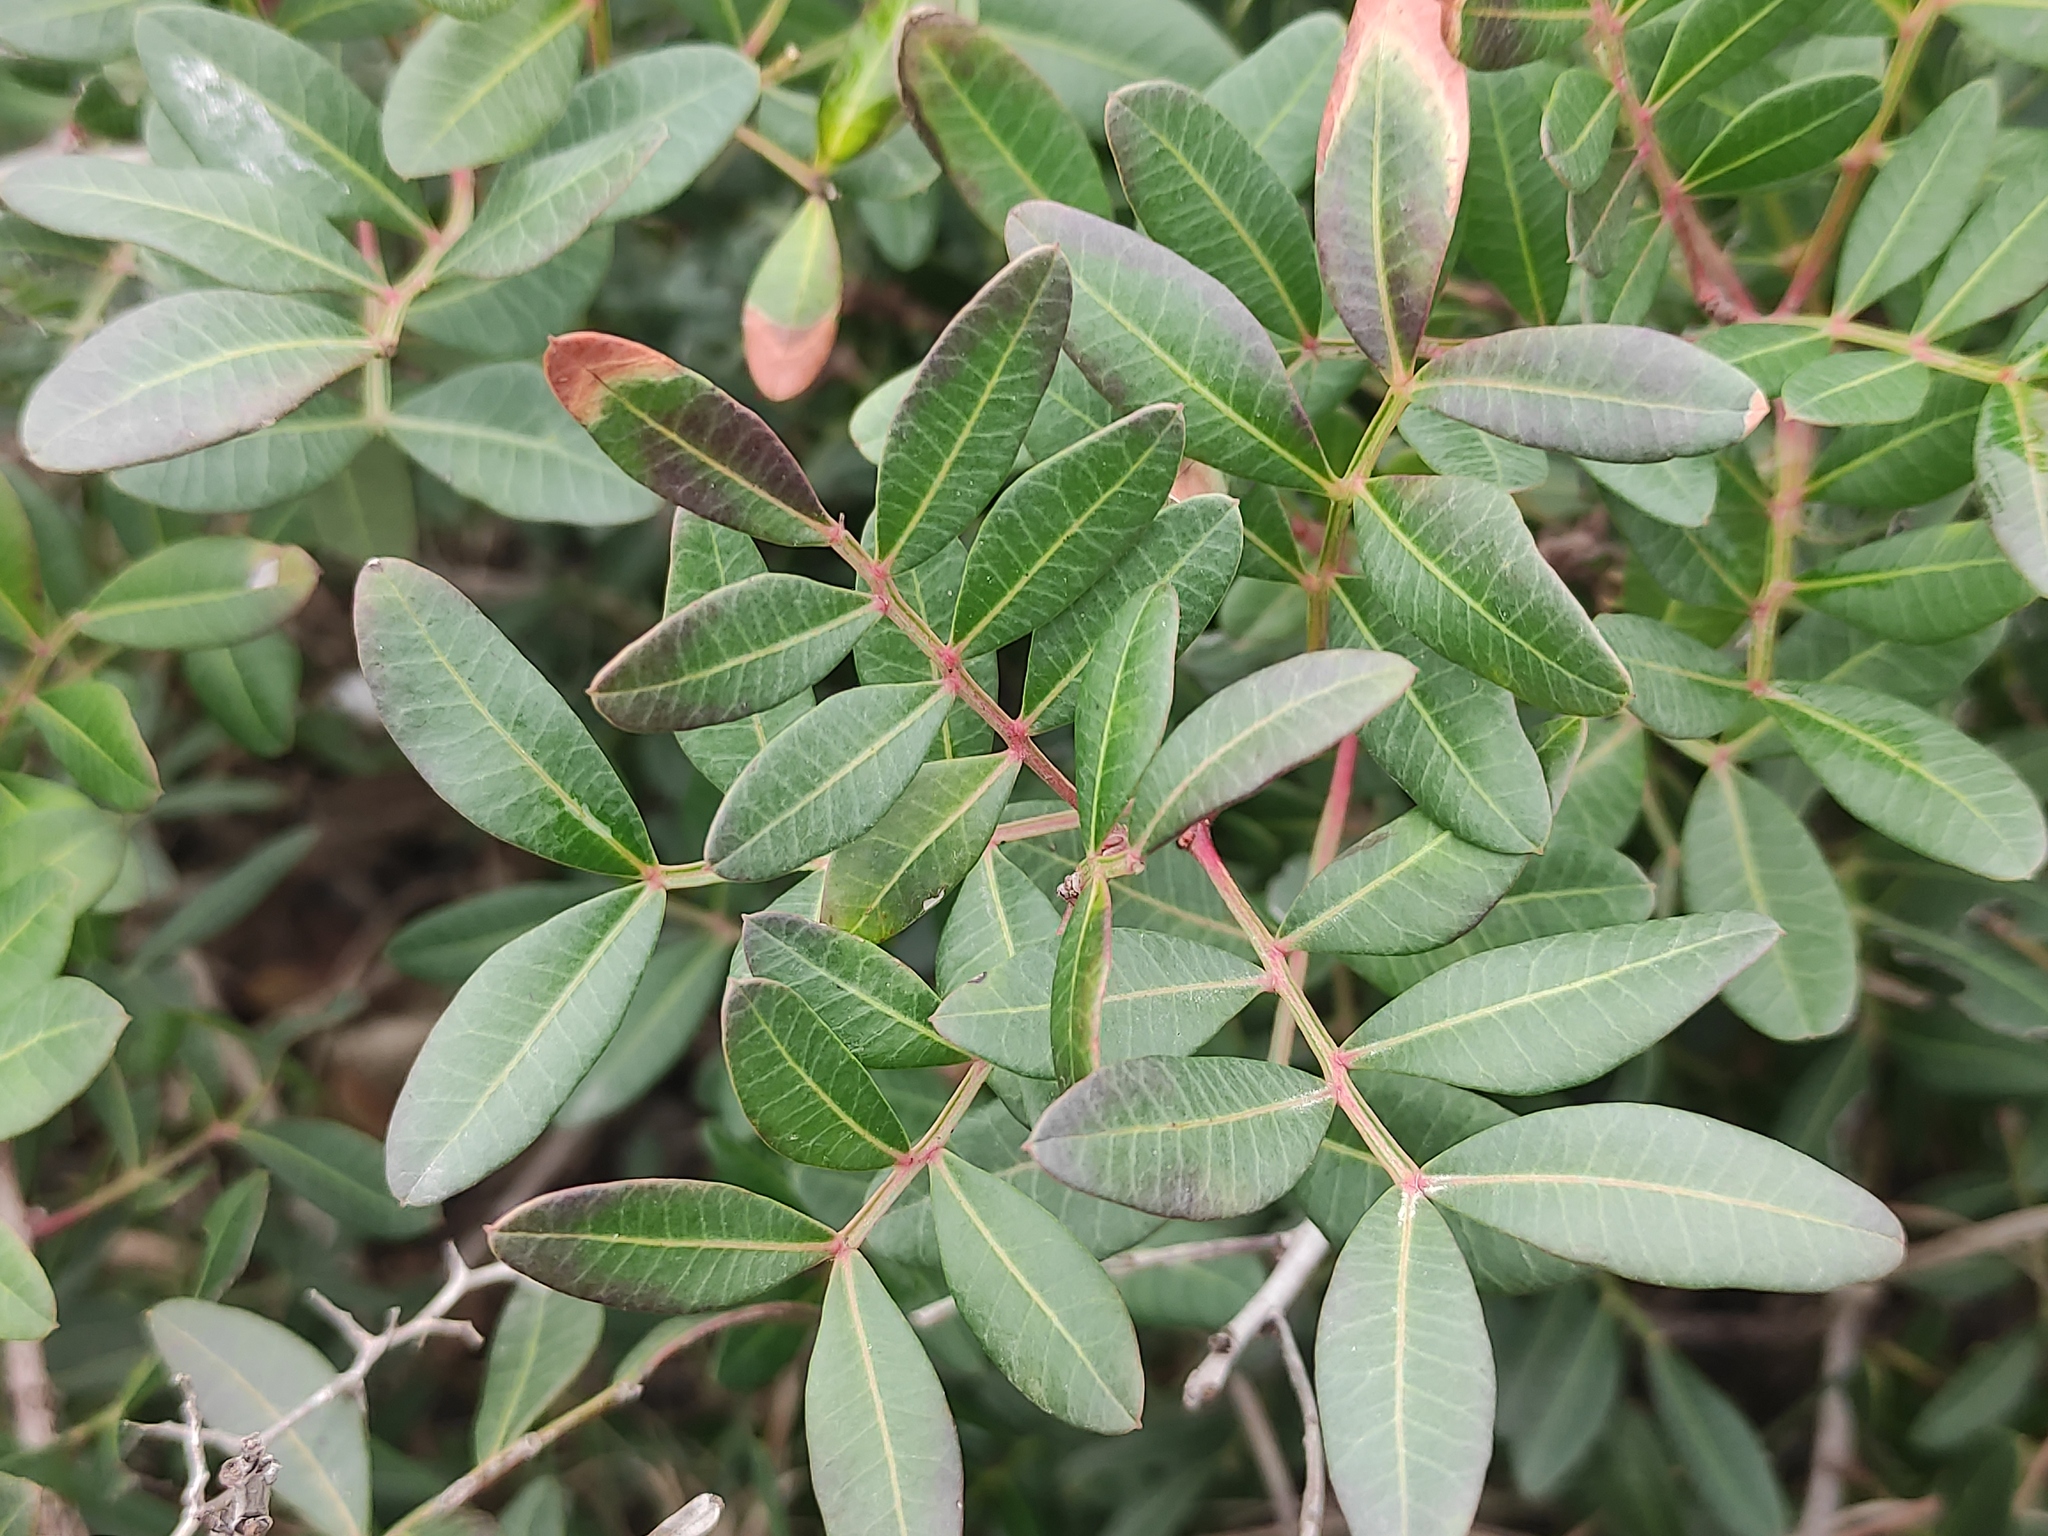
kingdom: Plantae
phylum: Tracheophyta
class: Magnoliopsida
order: Sapindales
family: Anacardiaceae
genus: Pistacia
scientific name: Pistacia lentiscus
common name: Lentisk
